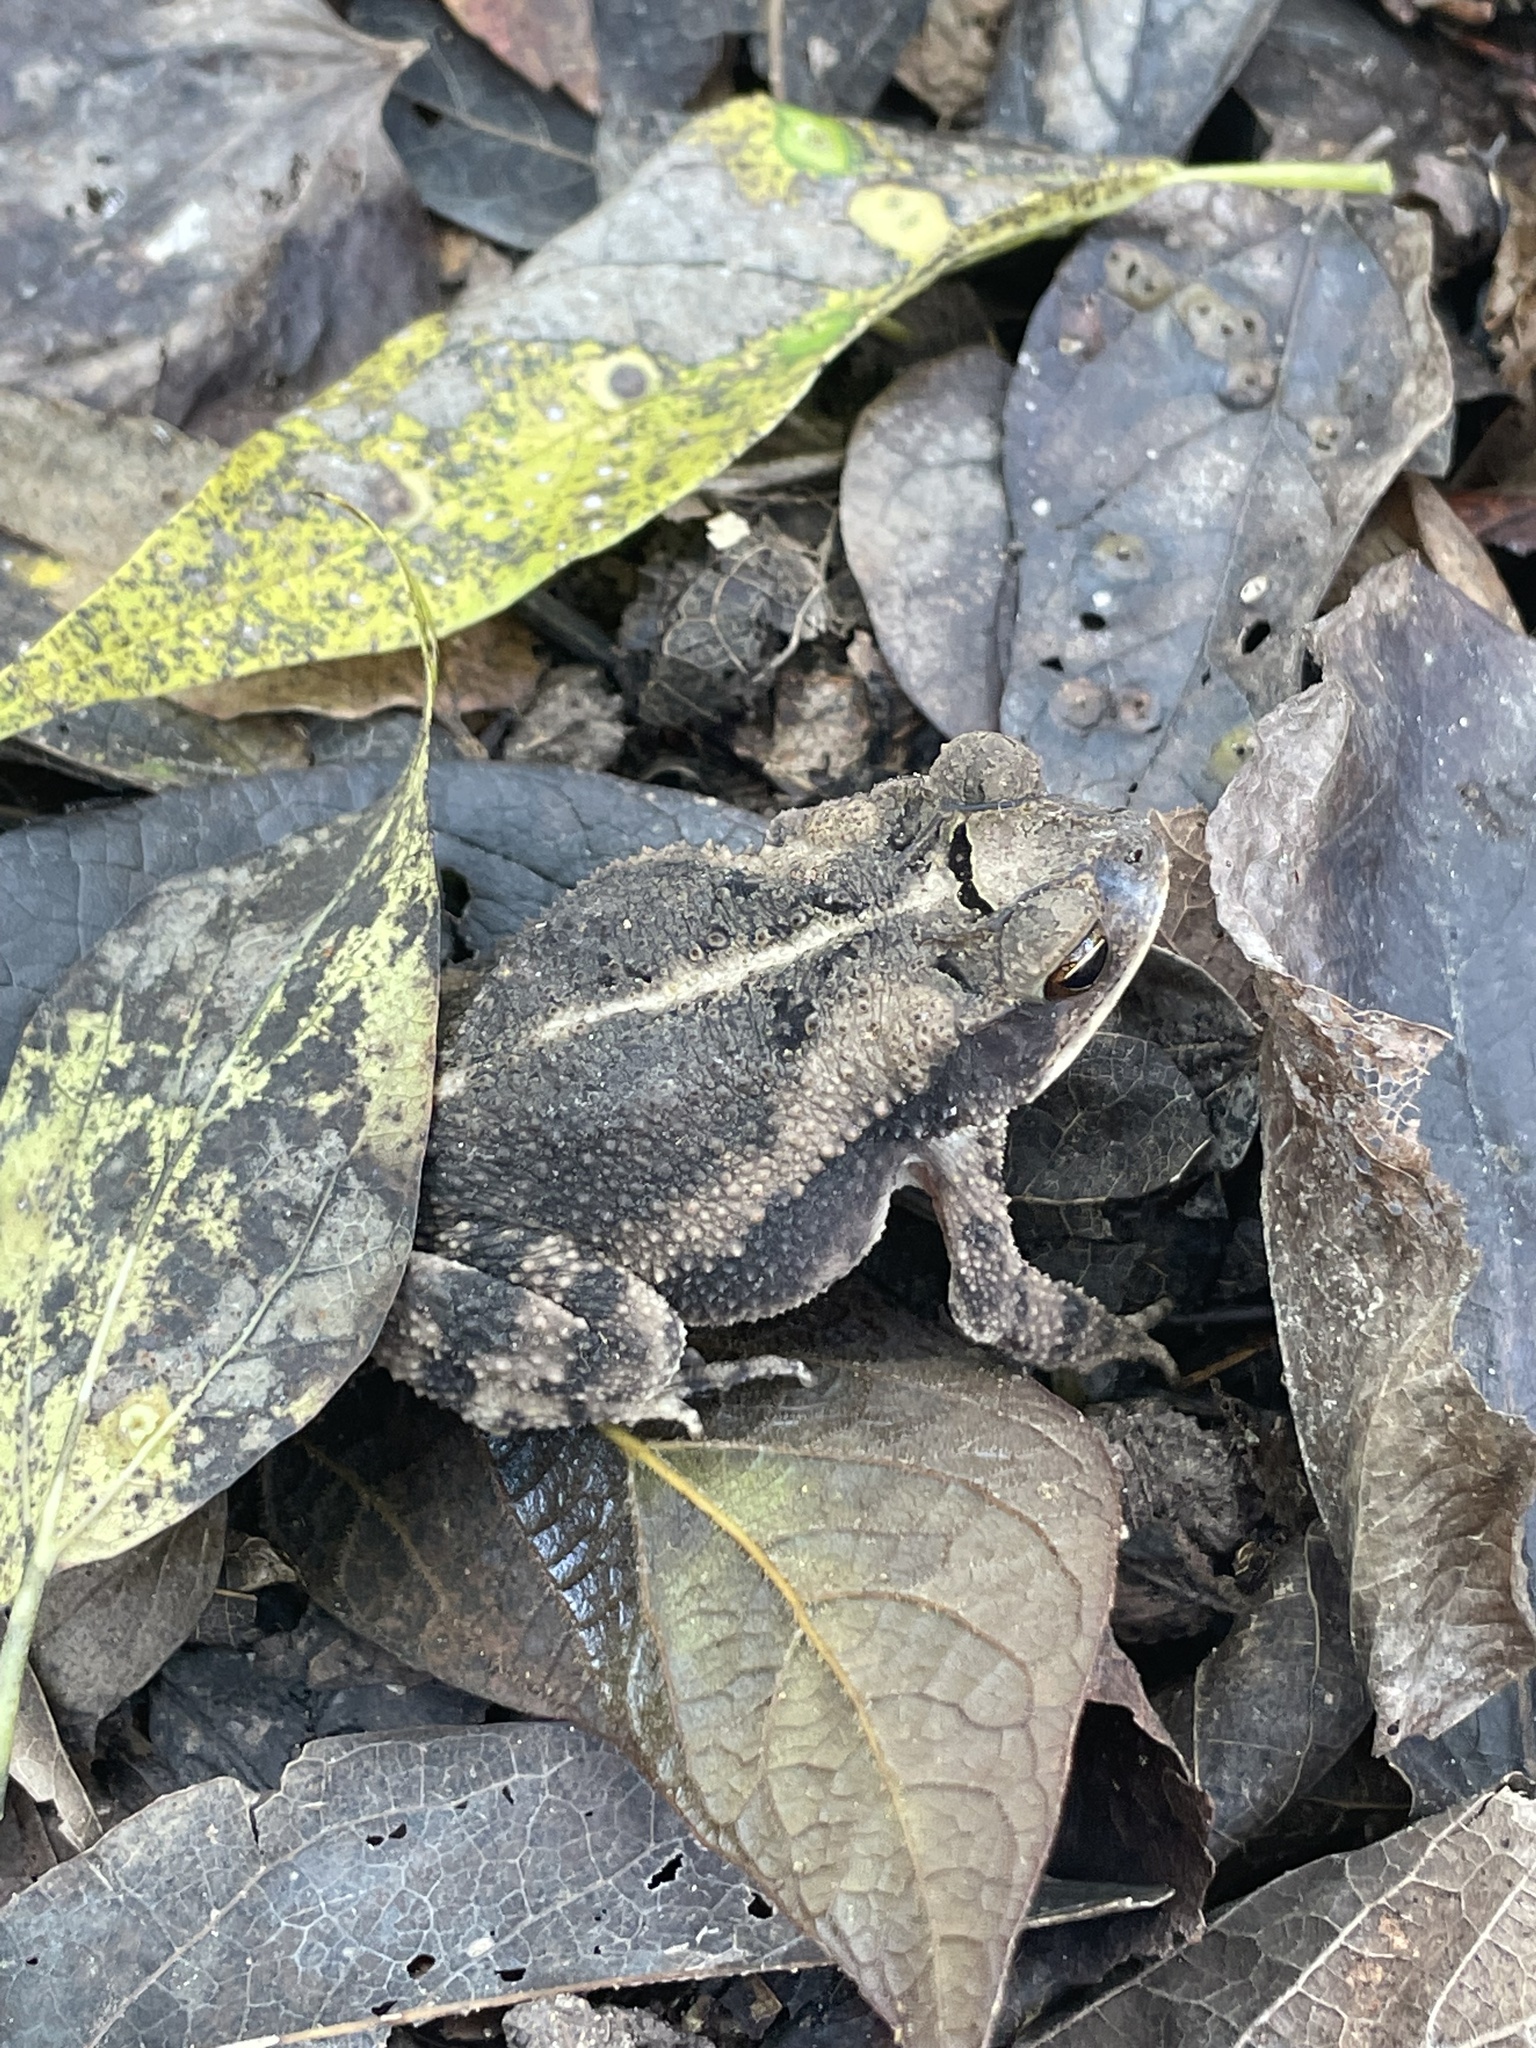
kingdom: Animalia
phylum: Chordata
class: Amphibia
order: Anura
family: Bufonidae
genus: Incilius
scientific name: Incilius nebulifer
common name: Gulf coast toad
